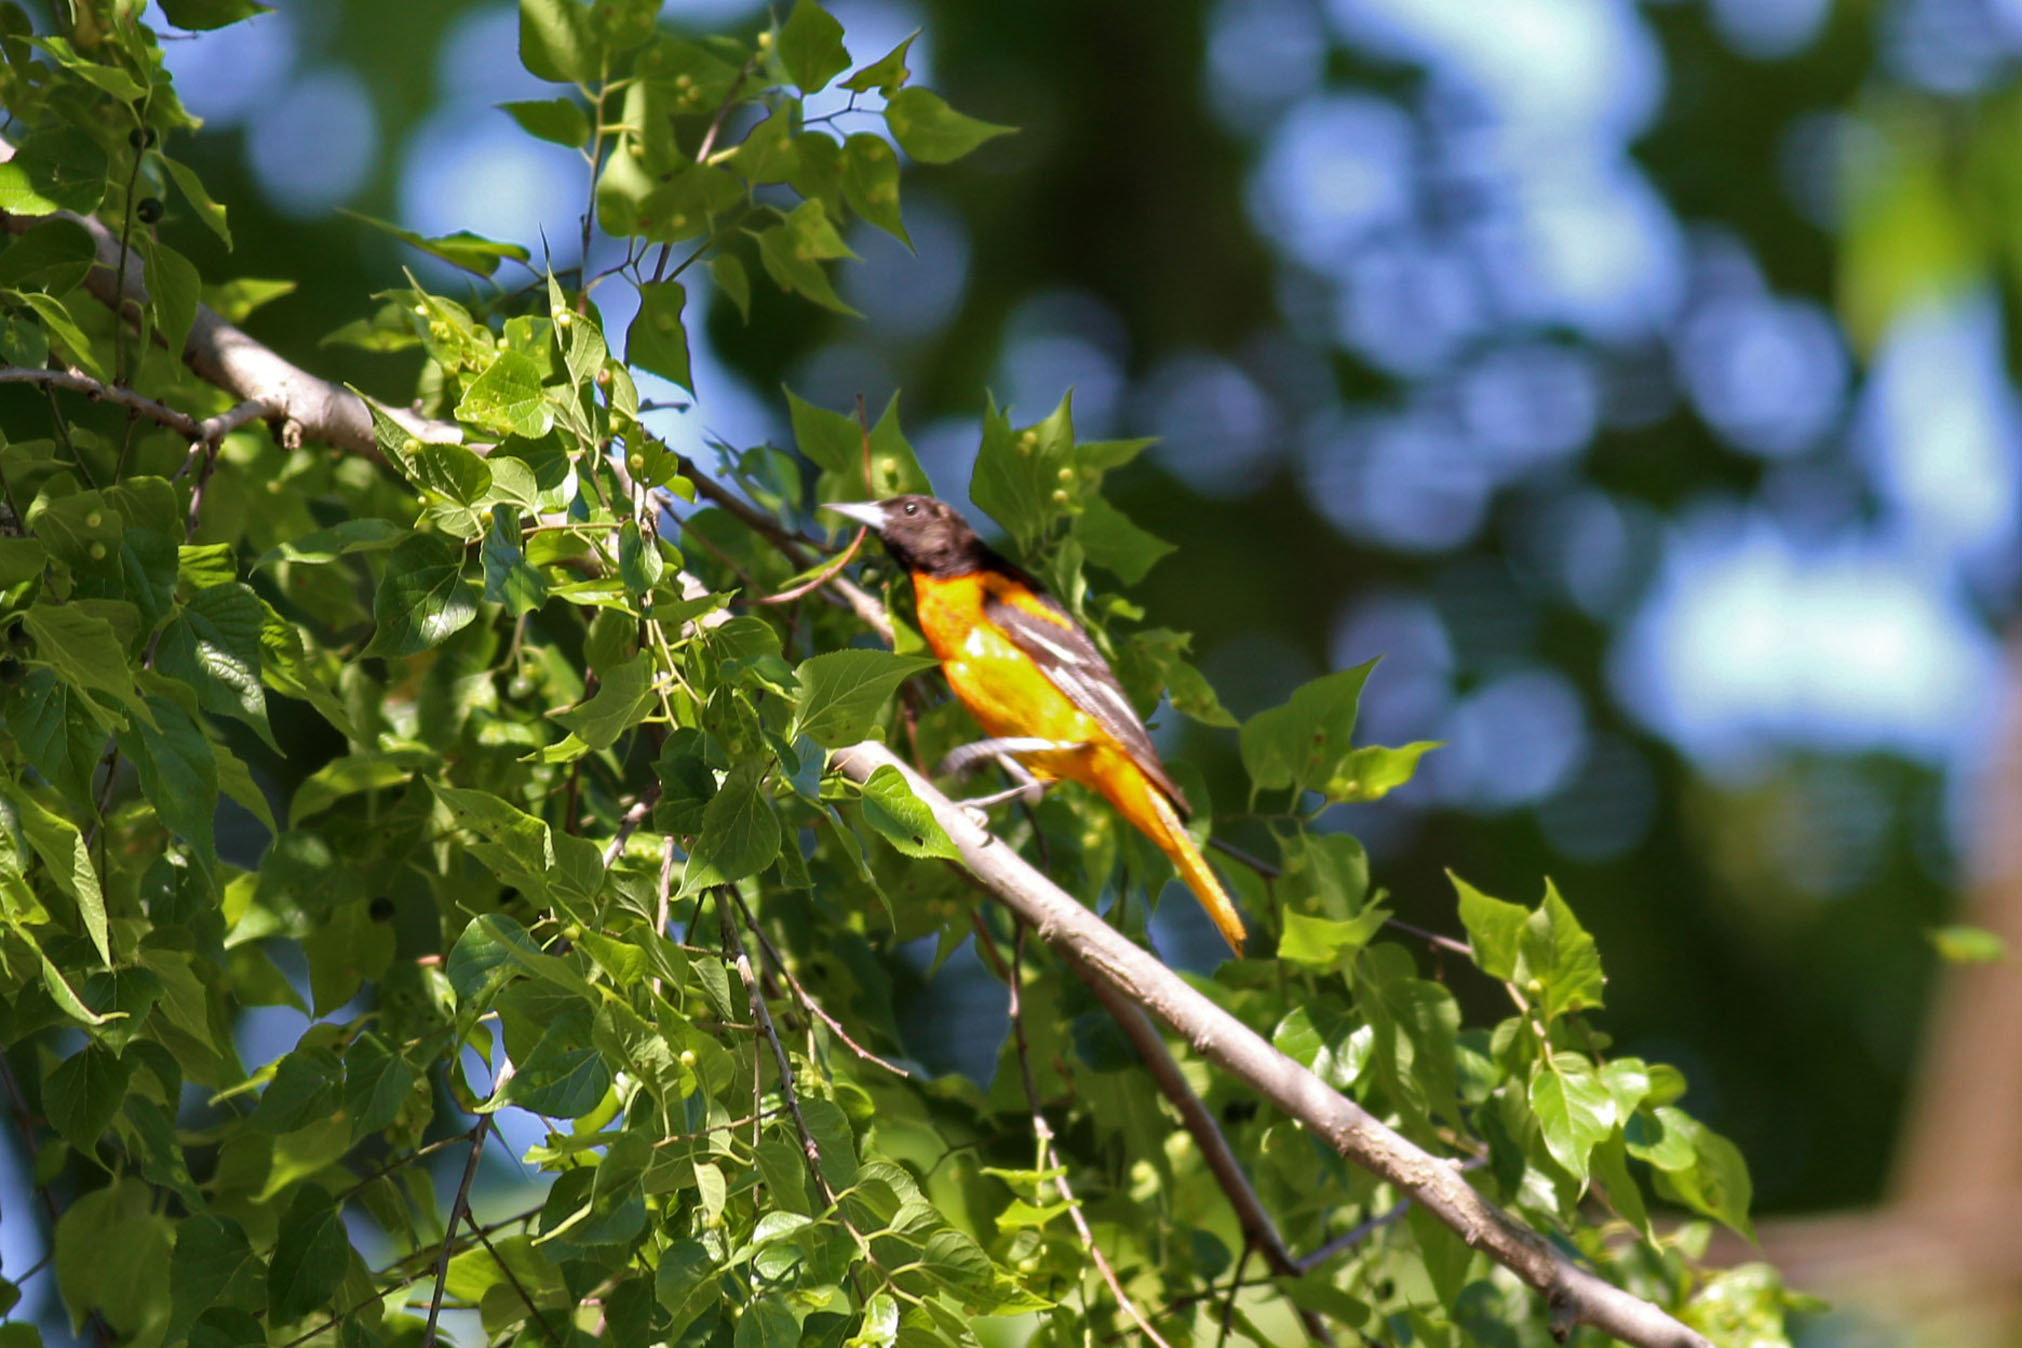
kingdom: Animalia
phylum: Chordata
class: Aves
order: Passeriformes
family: Icteridae
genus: Icterus
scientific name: Icterus galbula
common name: Baltimore oriole
